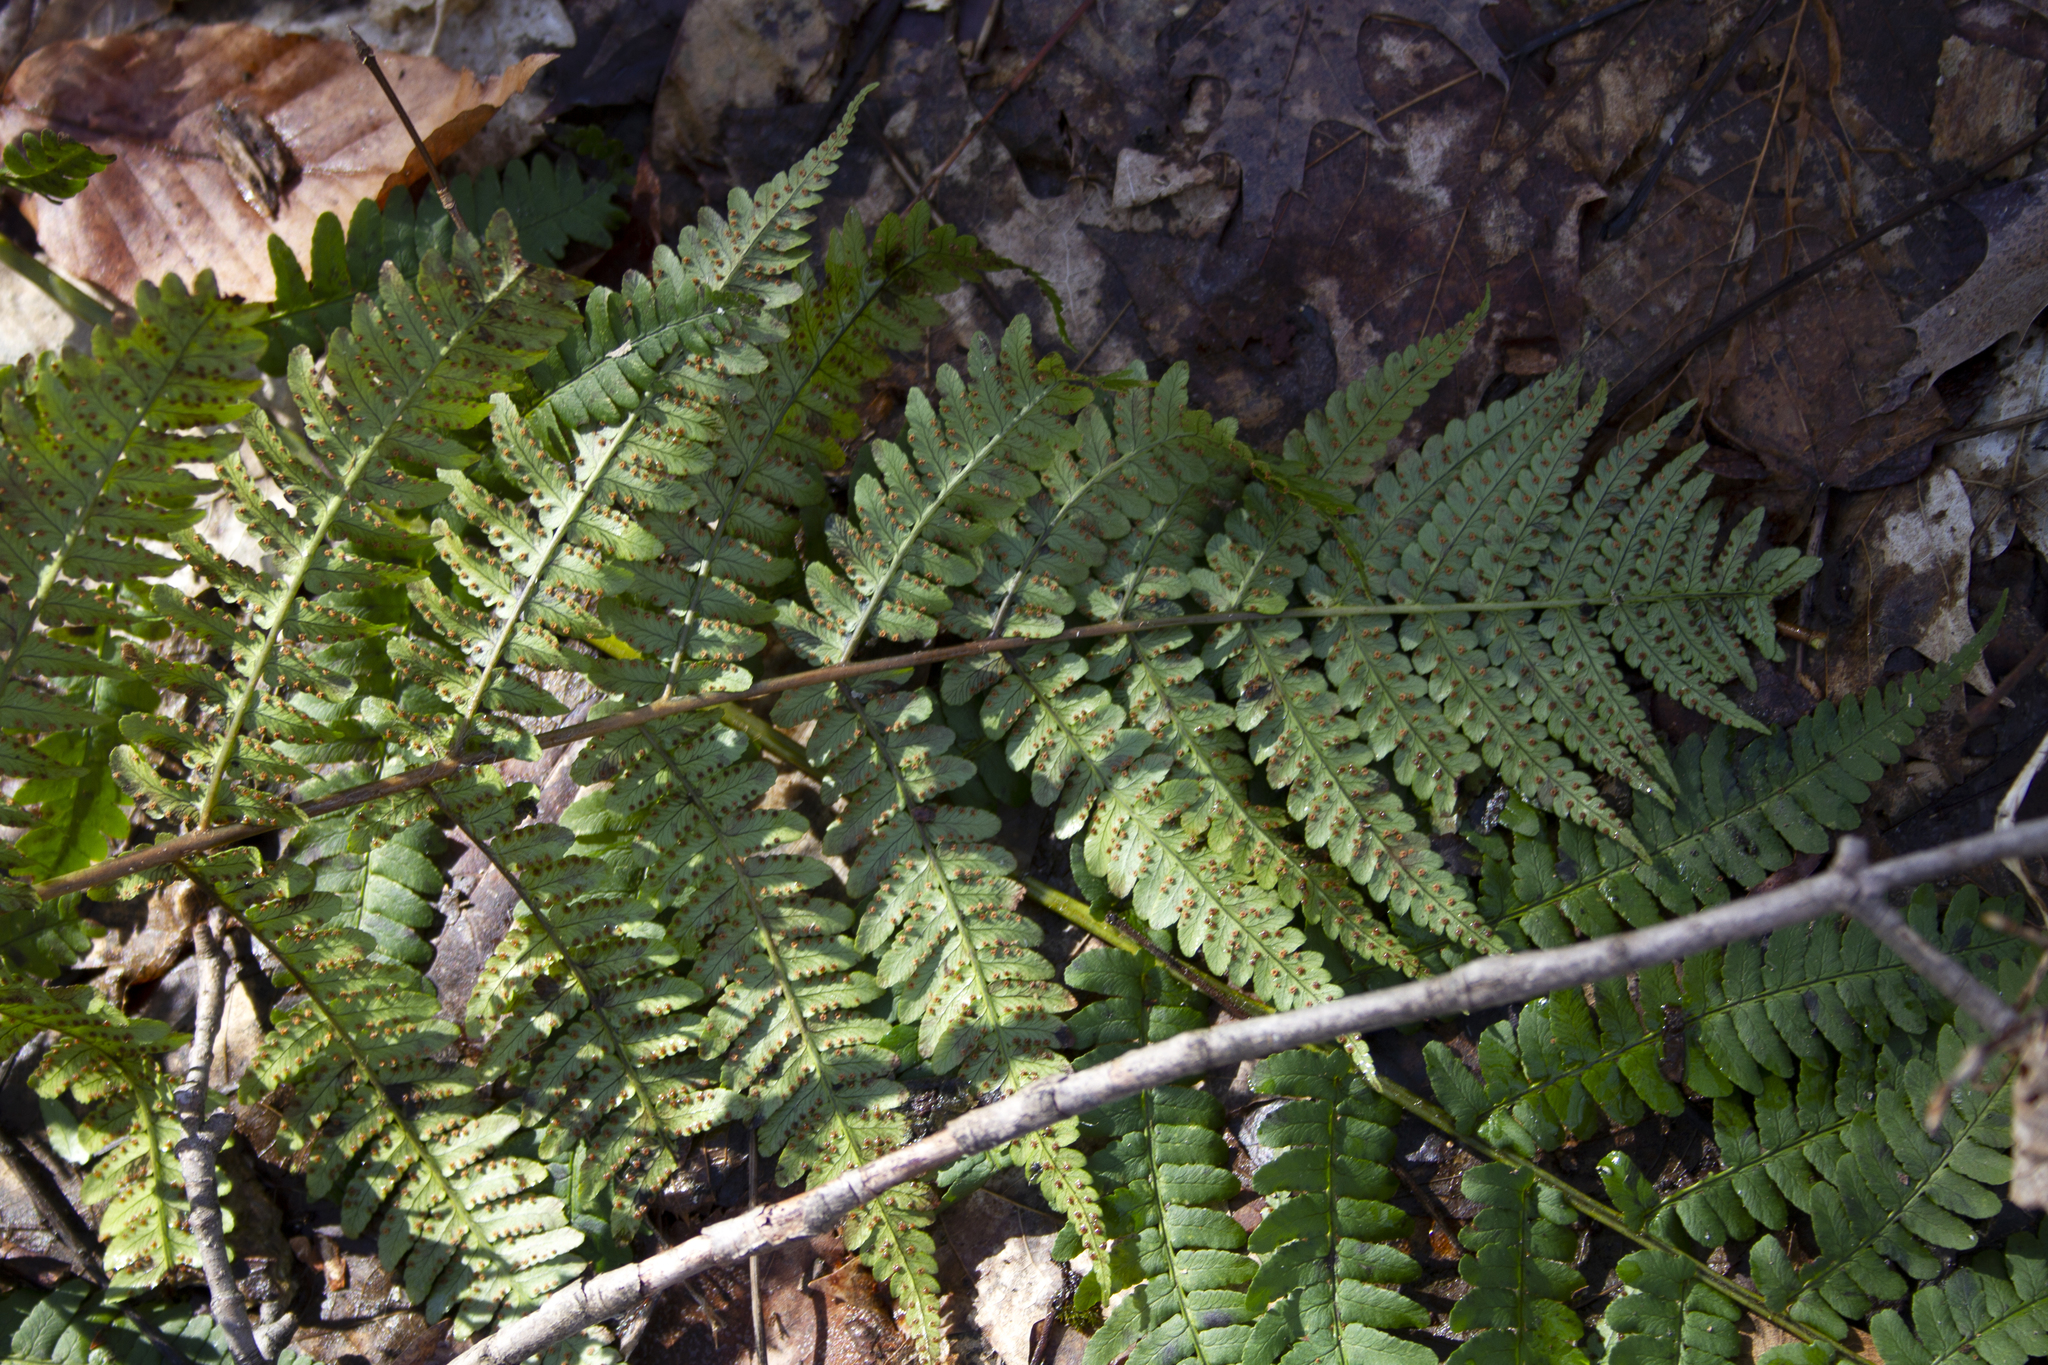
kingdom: Plantae
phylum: Tracheophyta
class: Polypodiopsida
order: Polypodiales
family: Dryopteridaceae
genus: Dryopteris
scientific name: Dryopteris marginalis
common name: Marginal wood fern
